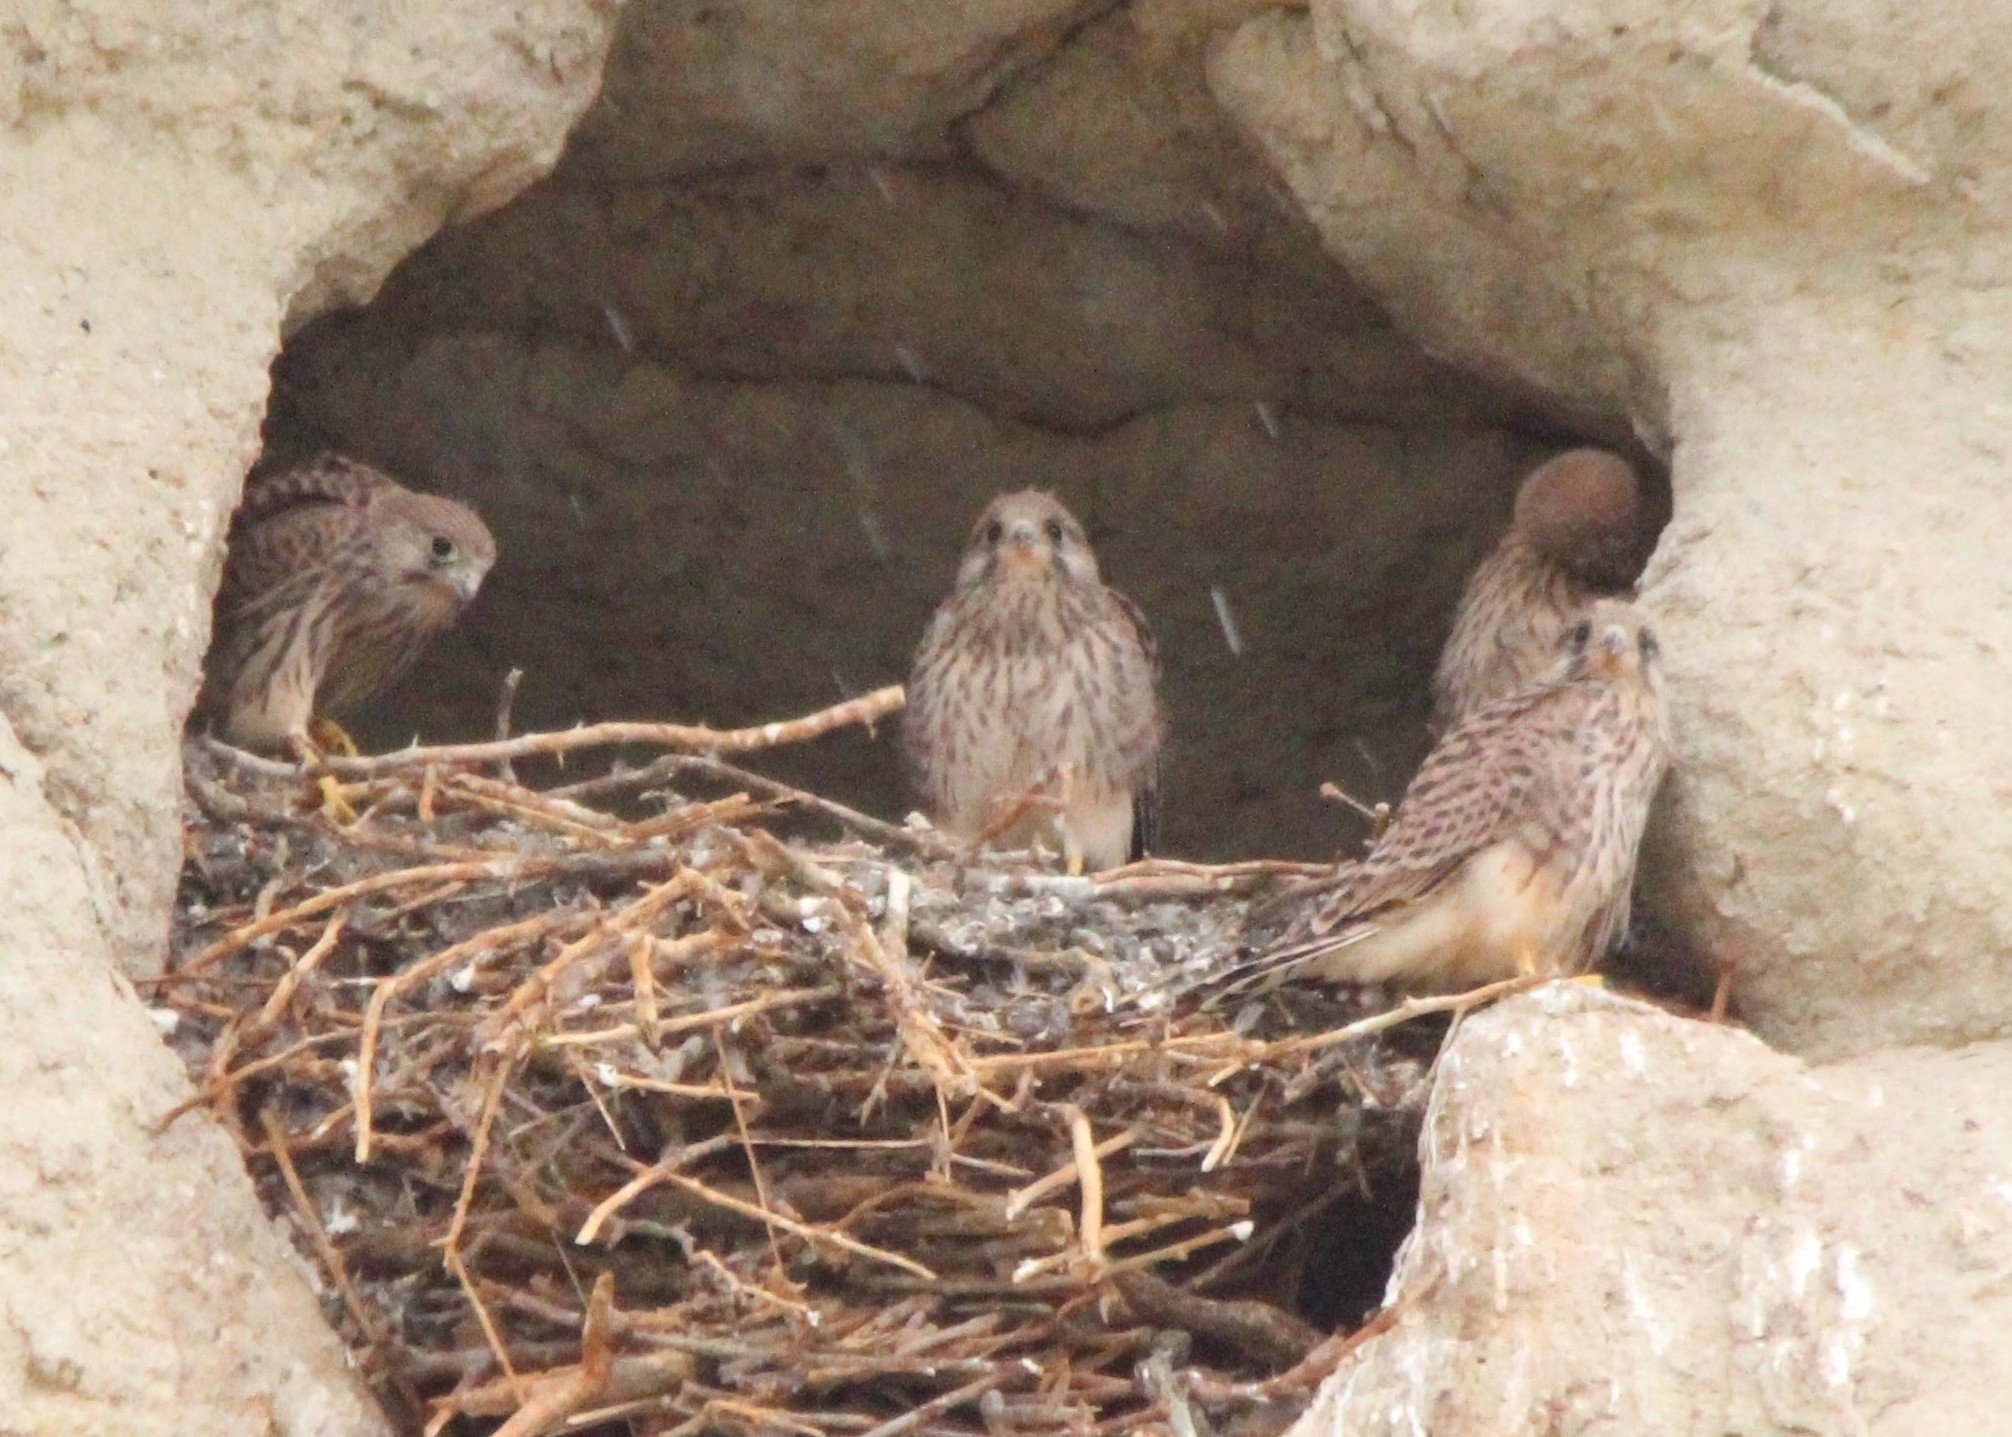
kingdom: Animalia
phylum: Chordata
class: Aves
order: Falconiformes
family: Falconidae
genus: Falco
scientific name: Falco tinnunculus
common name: Common kestrel
